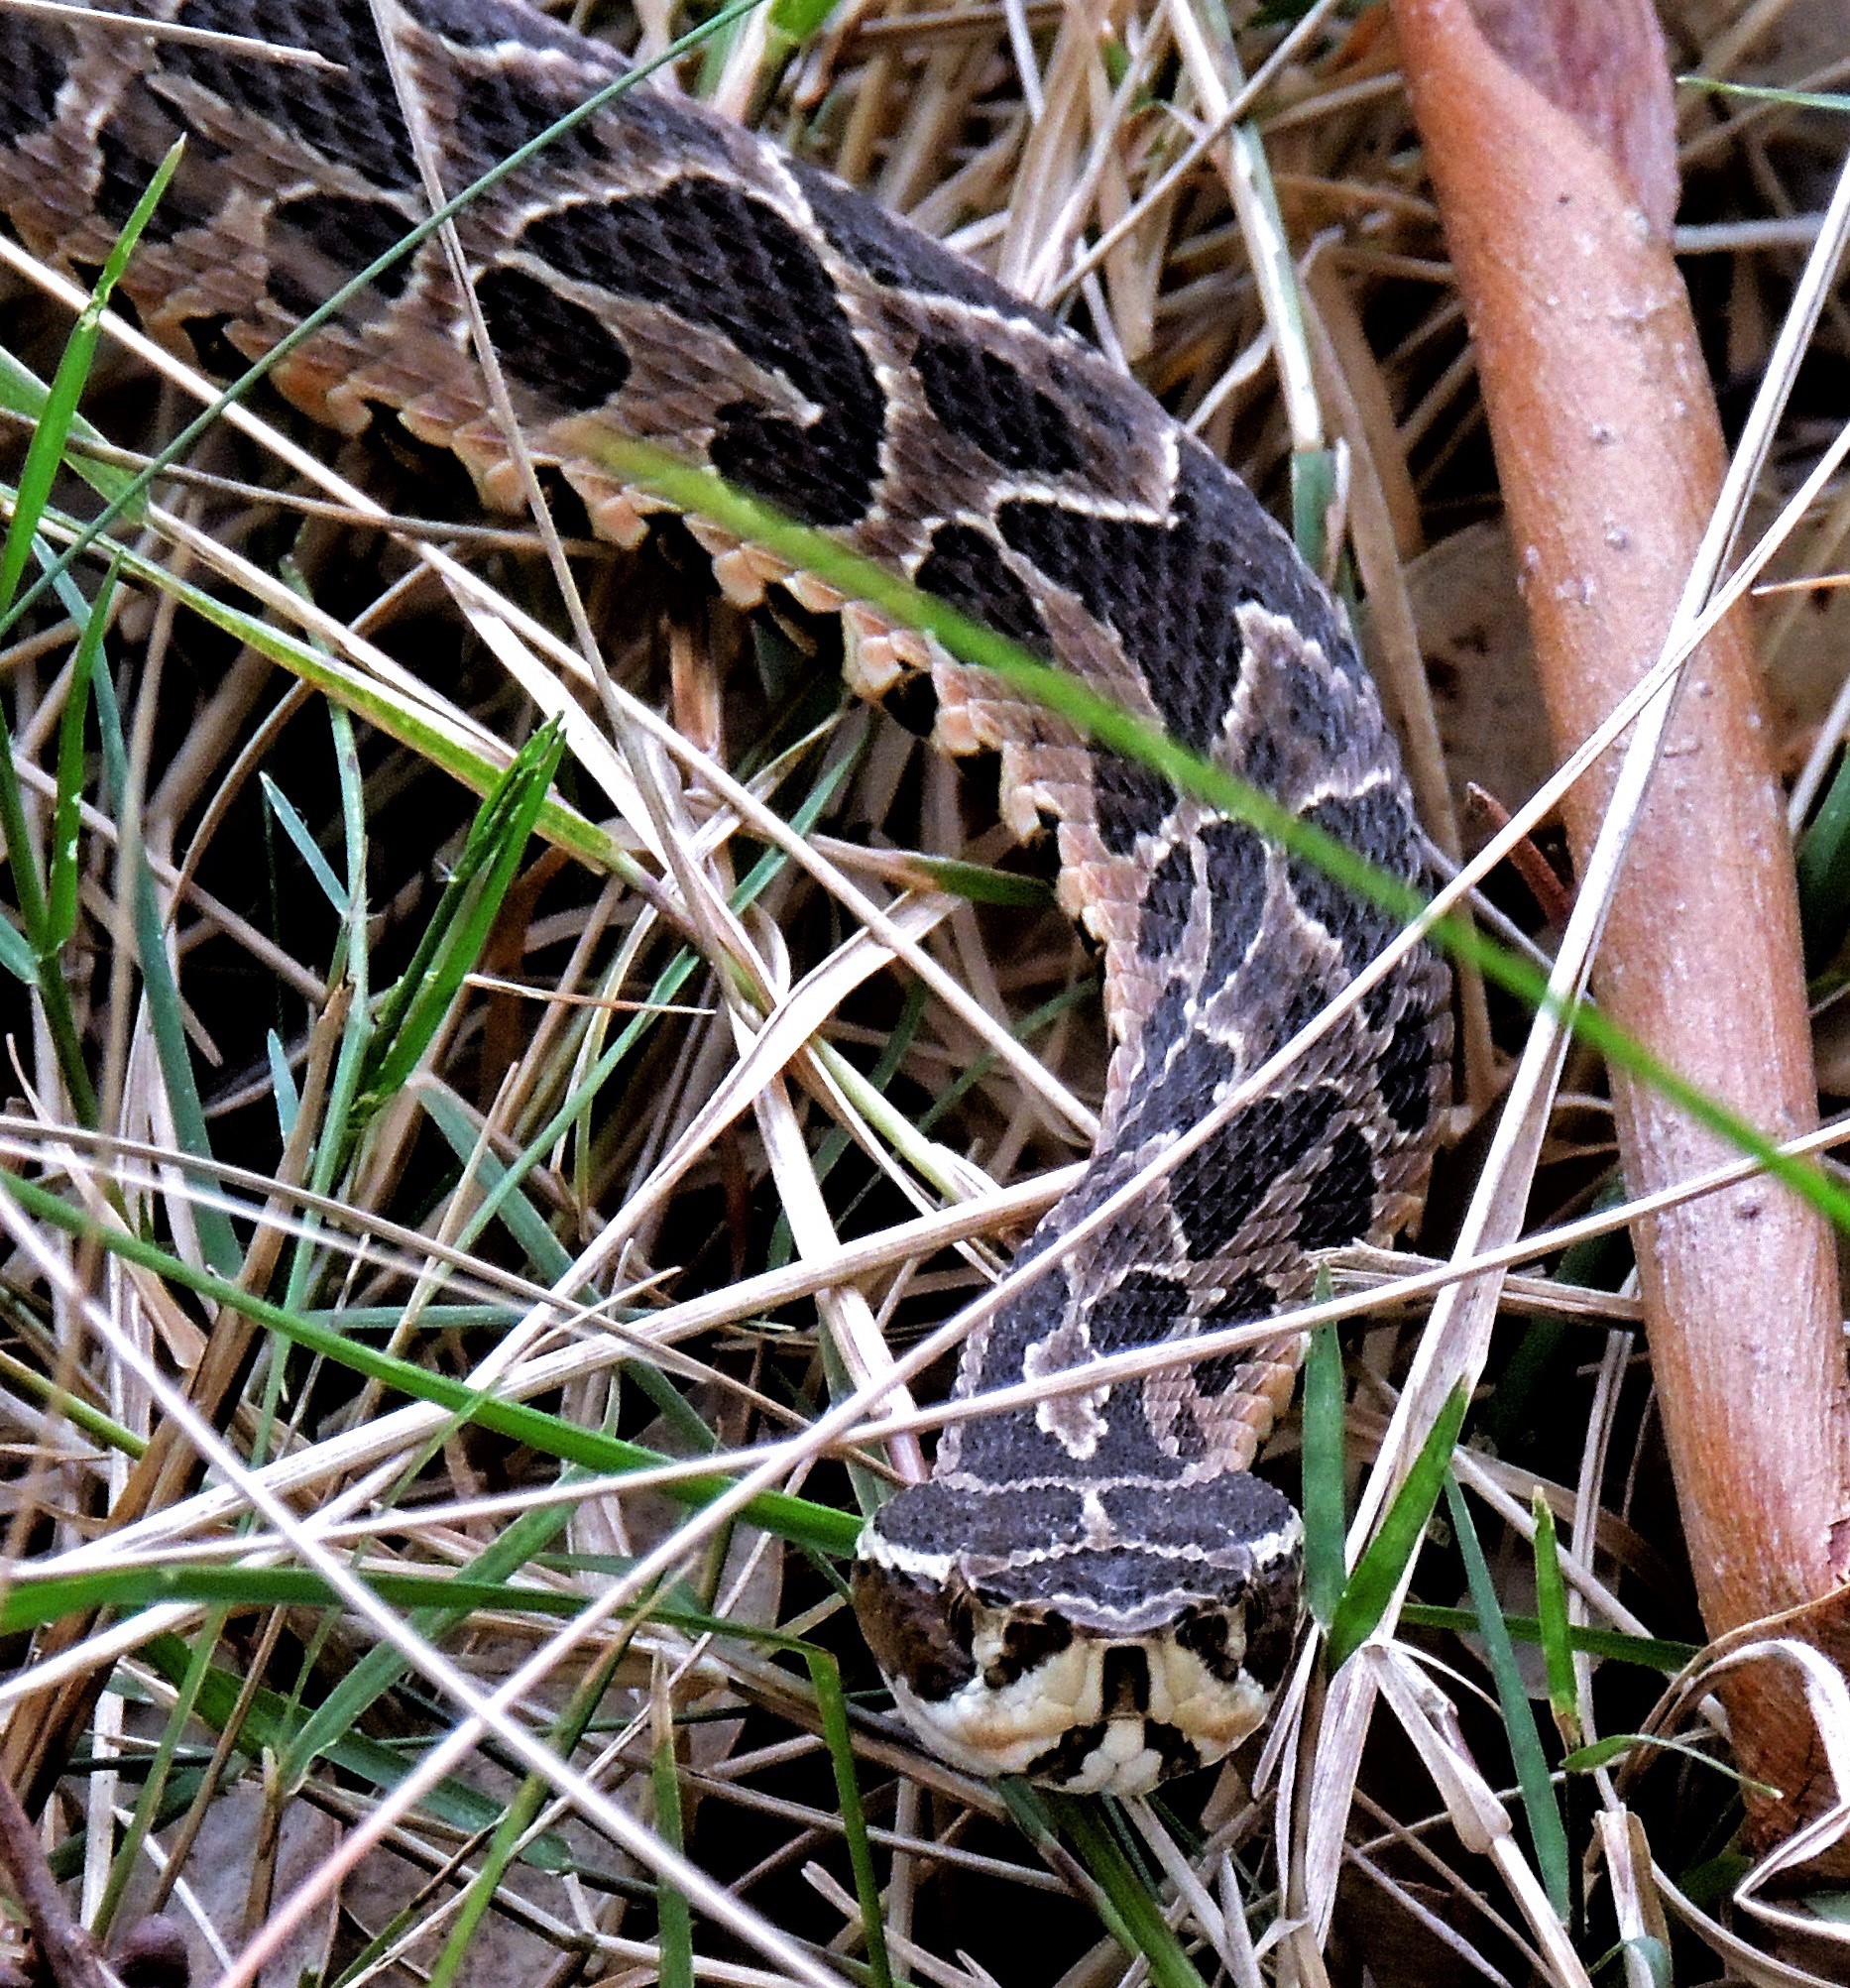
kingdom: Animalia
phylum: Chordata
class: Squamata
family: Viperidae
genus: Bothrops
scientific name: Bothrops alternatus
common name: Urutu
